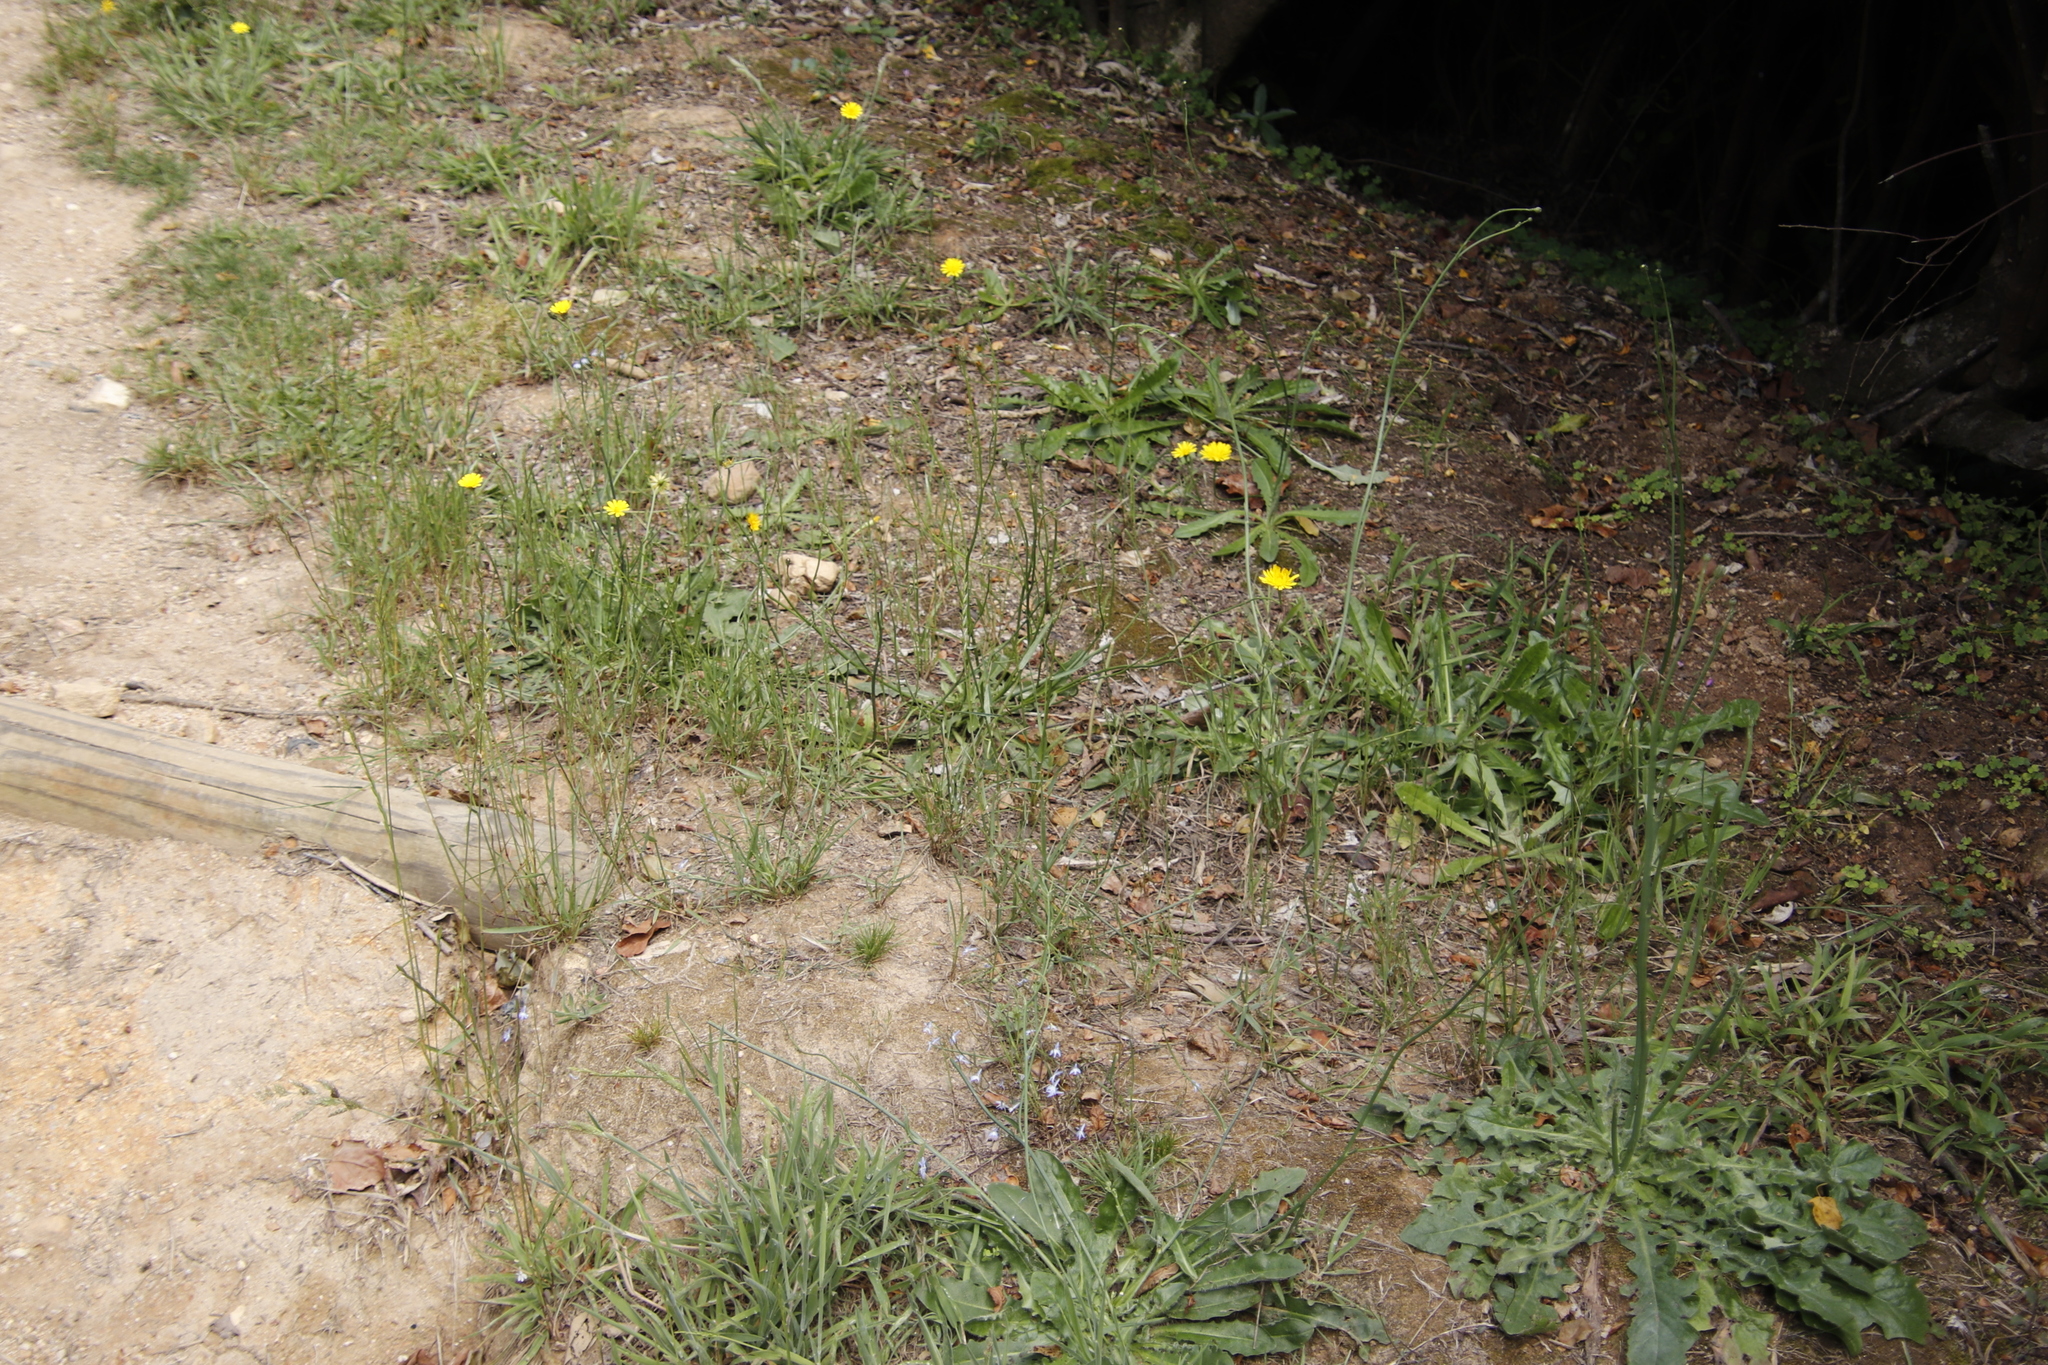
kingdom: Plantae
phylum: Tracheophyta
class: Magnoliopsida
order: Asterales
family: Asteraceae
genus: Hypochaeris
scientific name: Hypochaeris radicata
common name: Flatweed
